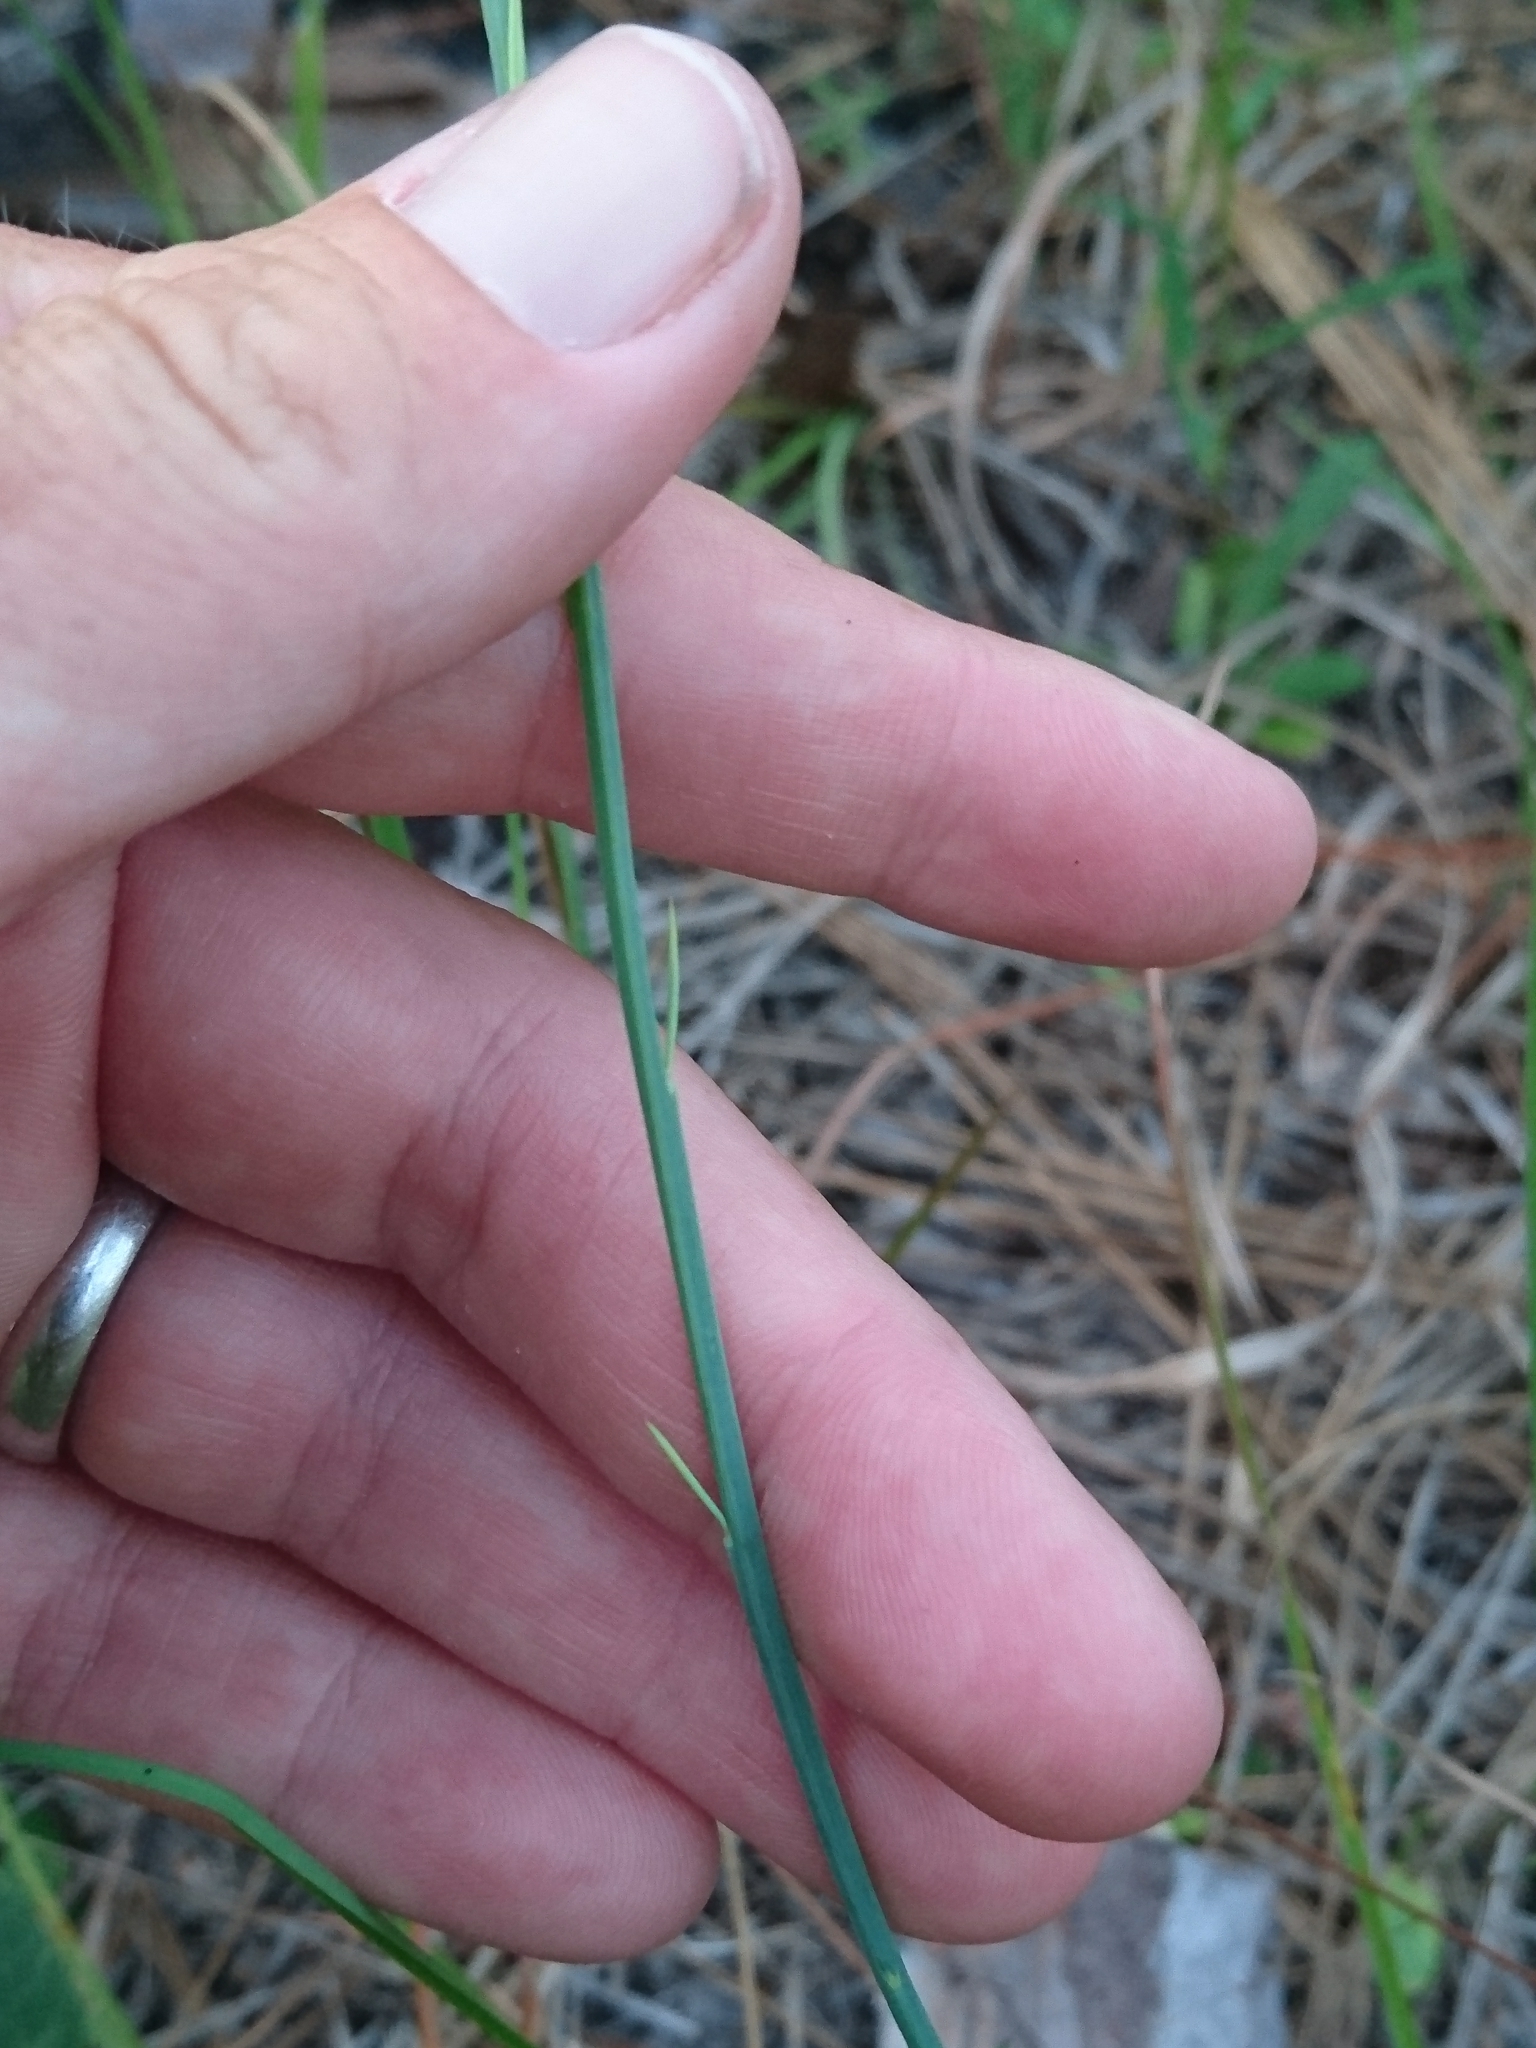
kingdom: Plantae
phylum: Tracheophyta
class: Magnoliopsida
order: Fabales
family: Polygalaceae
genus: Polygala
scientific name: Polygala incarnata
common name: Pink milkwort
